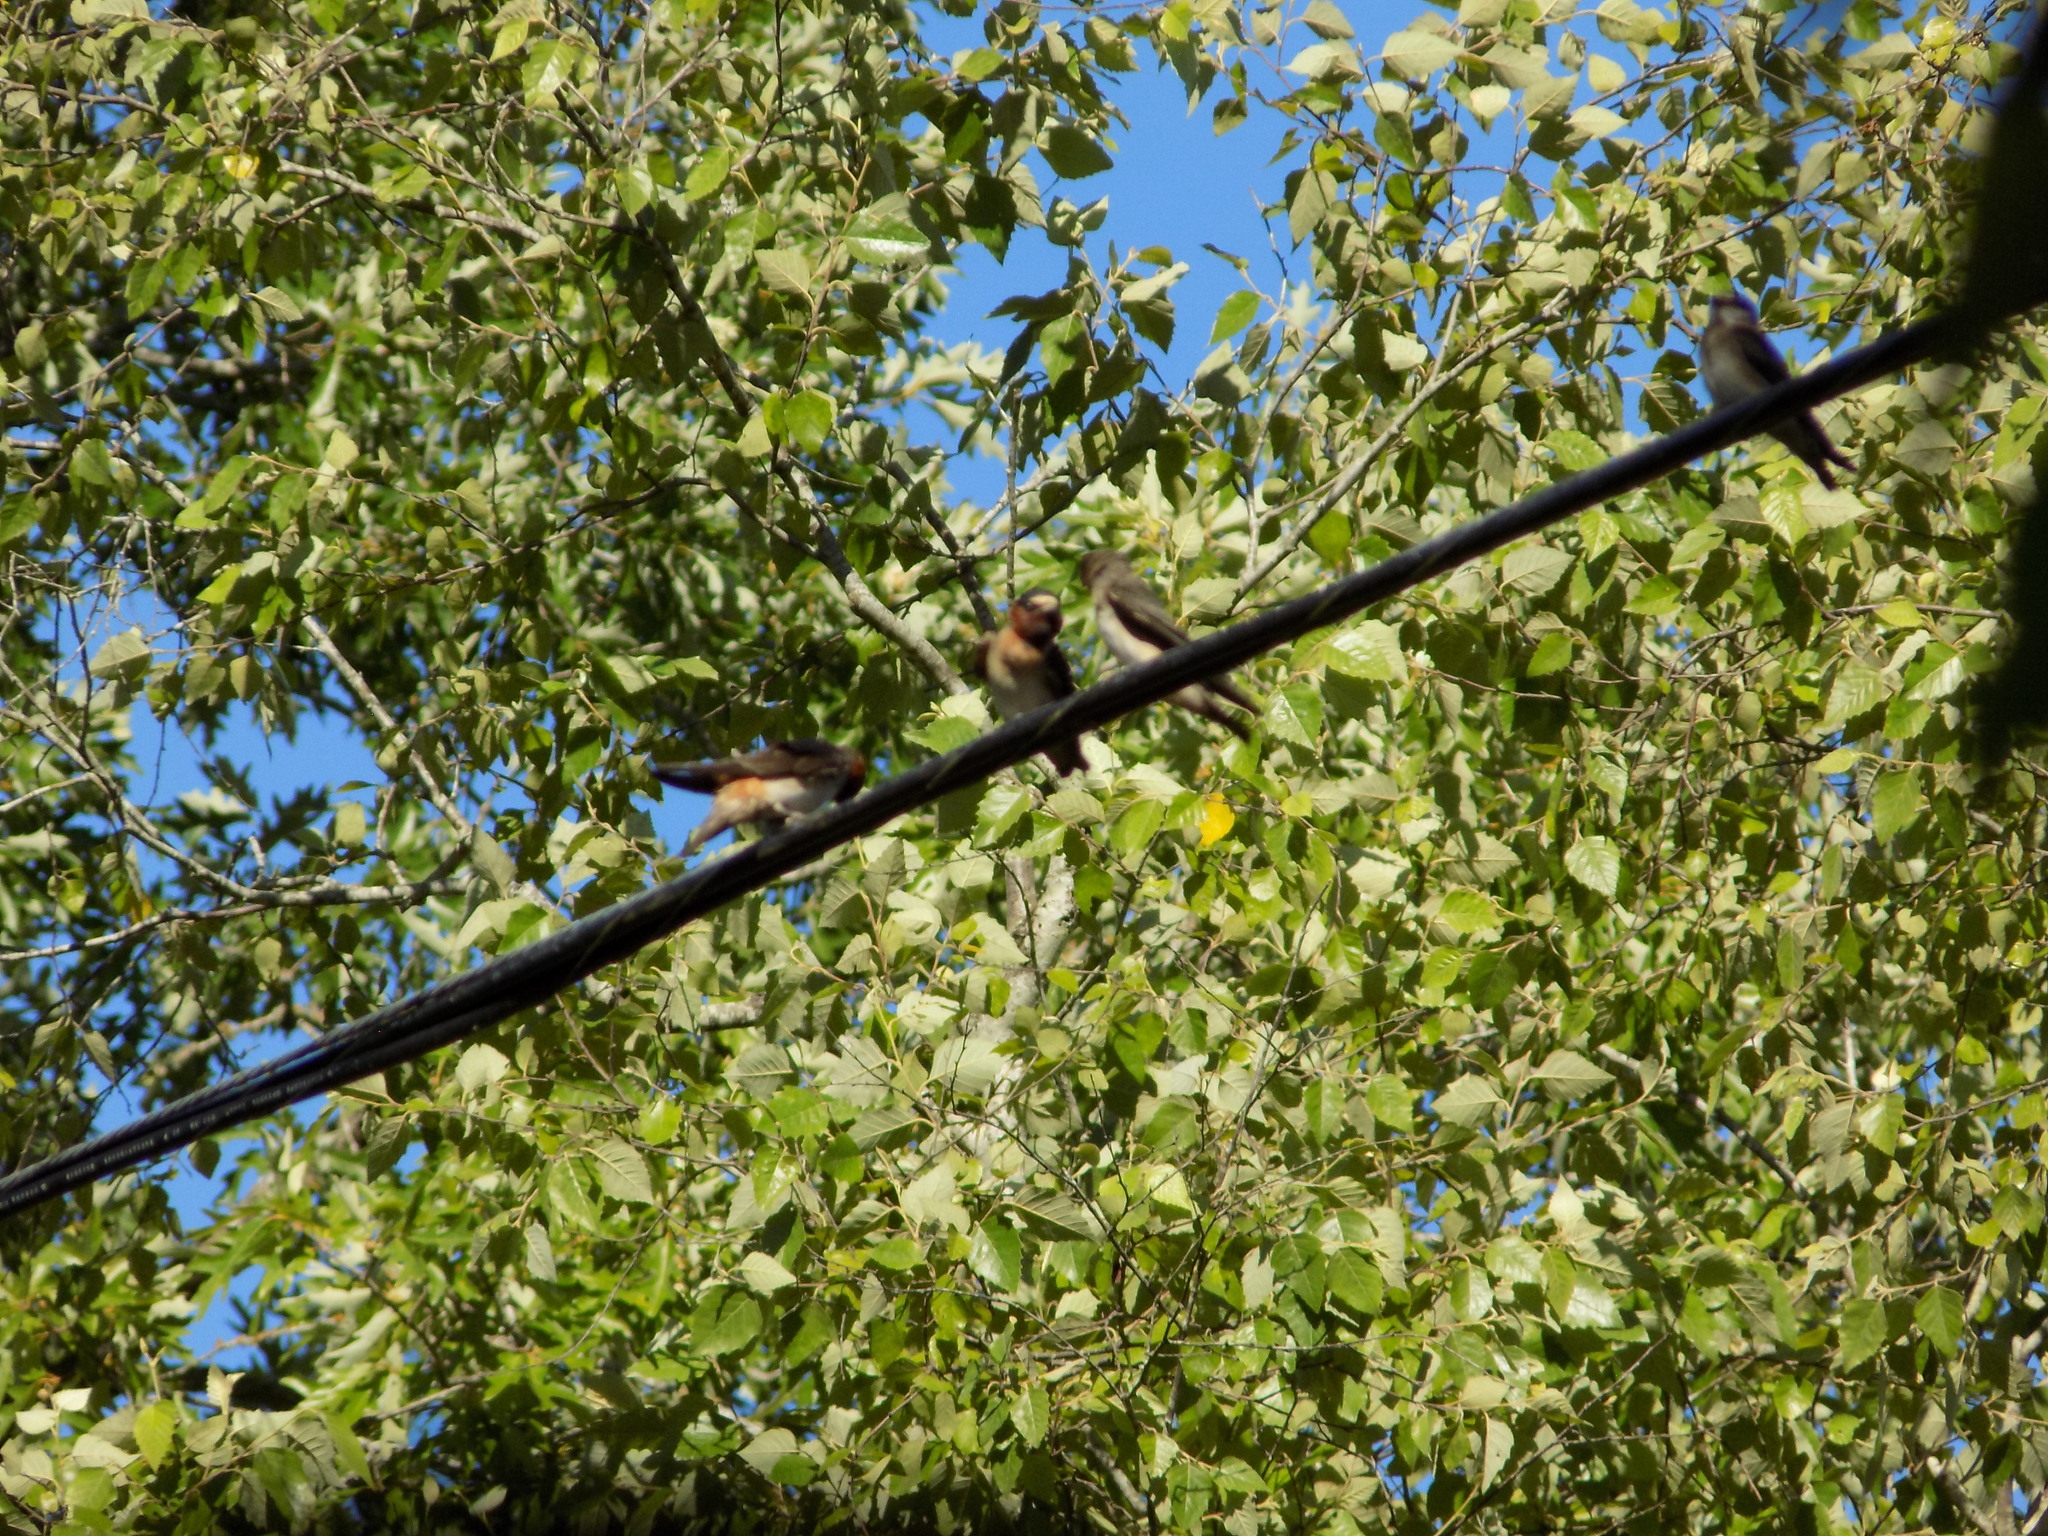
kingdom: Animalia
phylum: Chordata
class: Aves
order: Passeriformes
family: Hirundinidae
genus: Petrochelidon
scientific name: Petrochelidon pyrrhonota
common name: American cliff swallow
